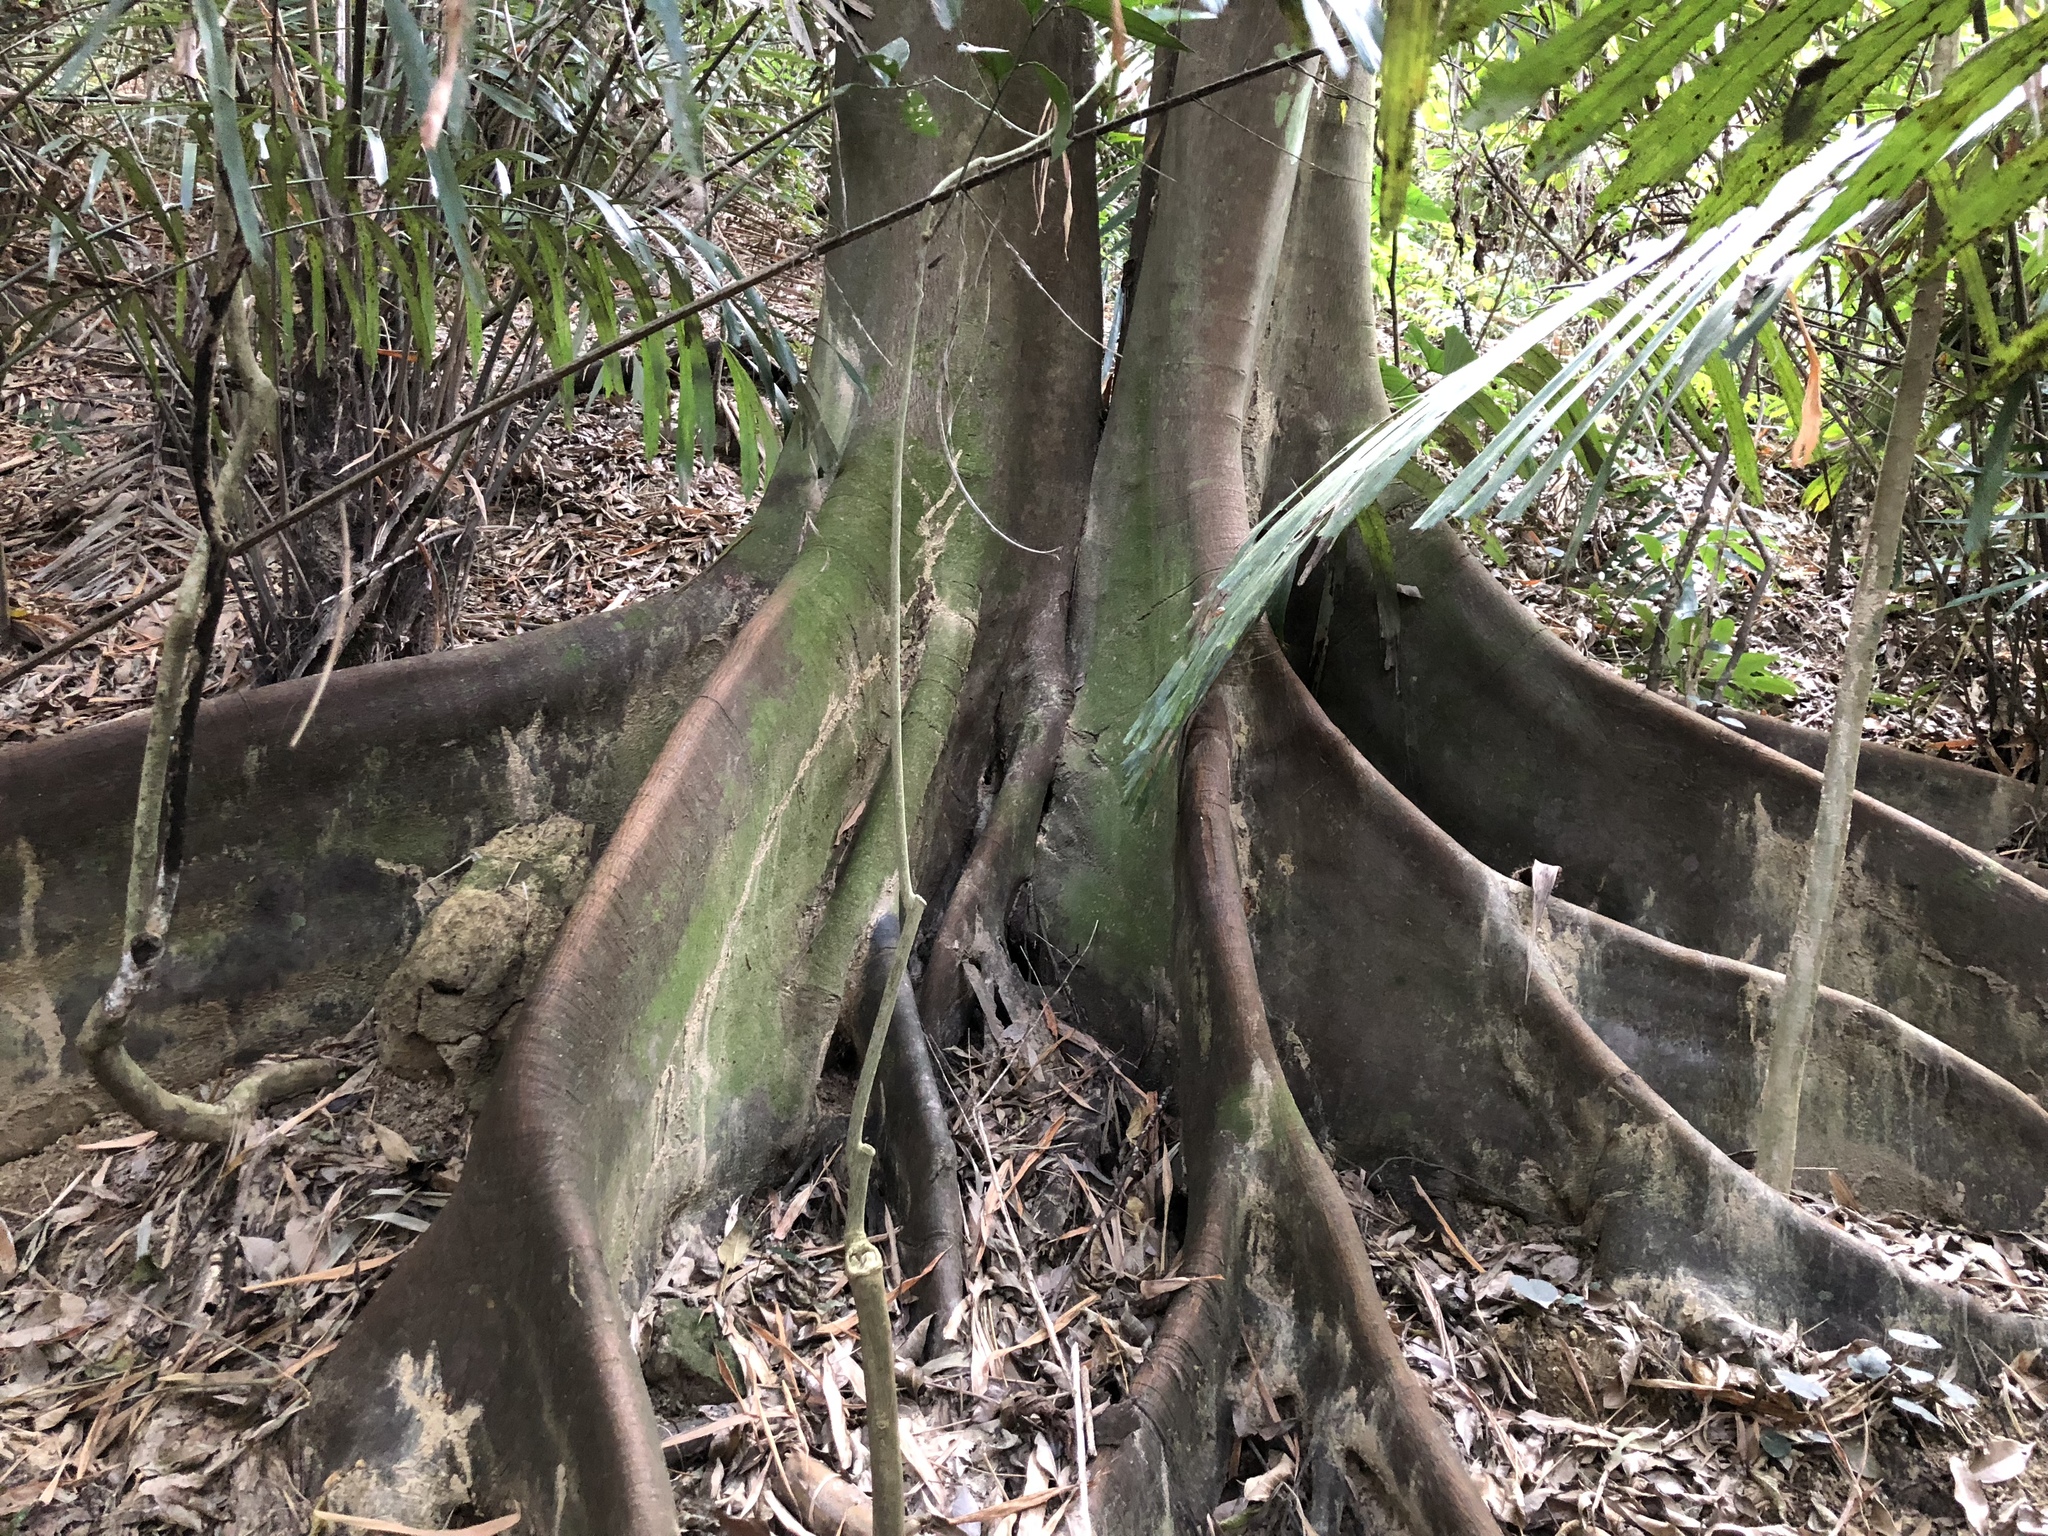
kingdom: Plantae
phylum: Tracheophyta
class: Magnoliopsida
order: Rosales
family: Moraceae
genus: Ficus
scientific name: Ficus ampelos
